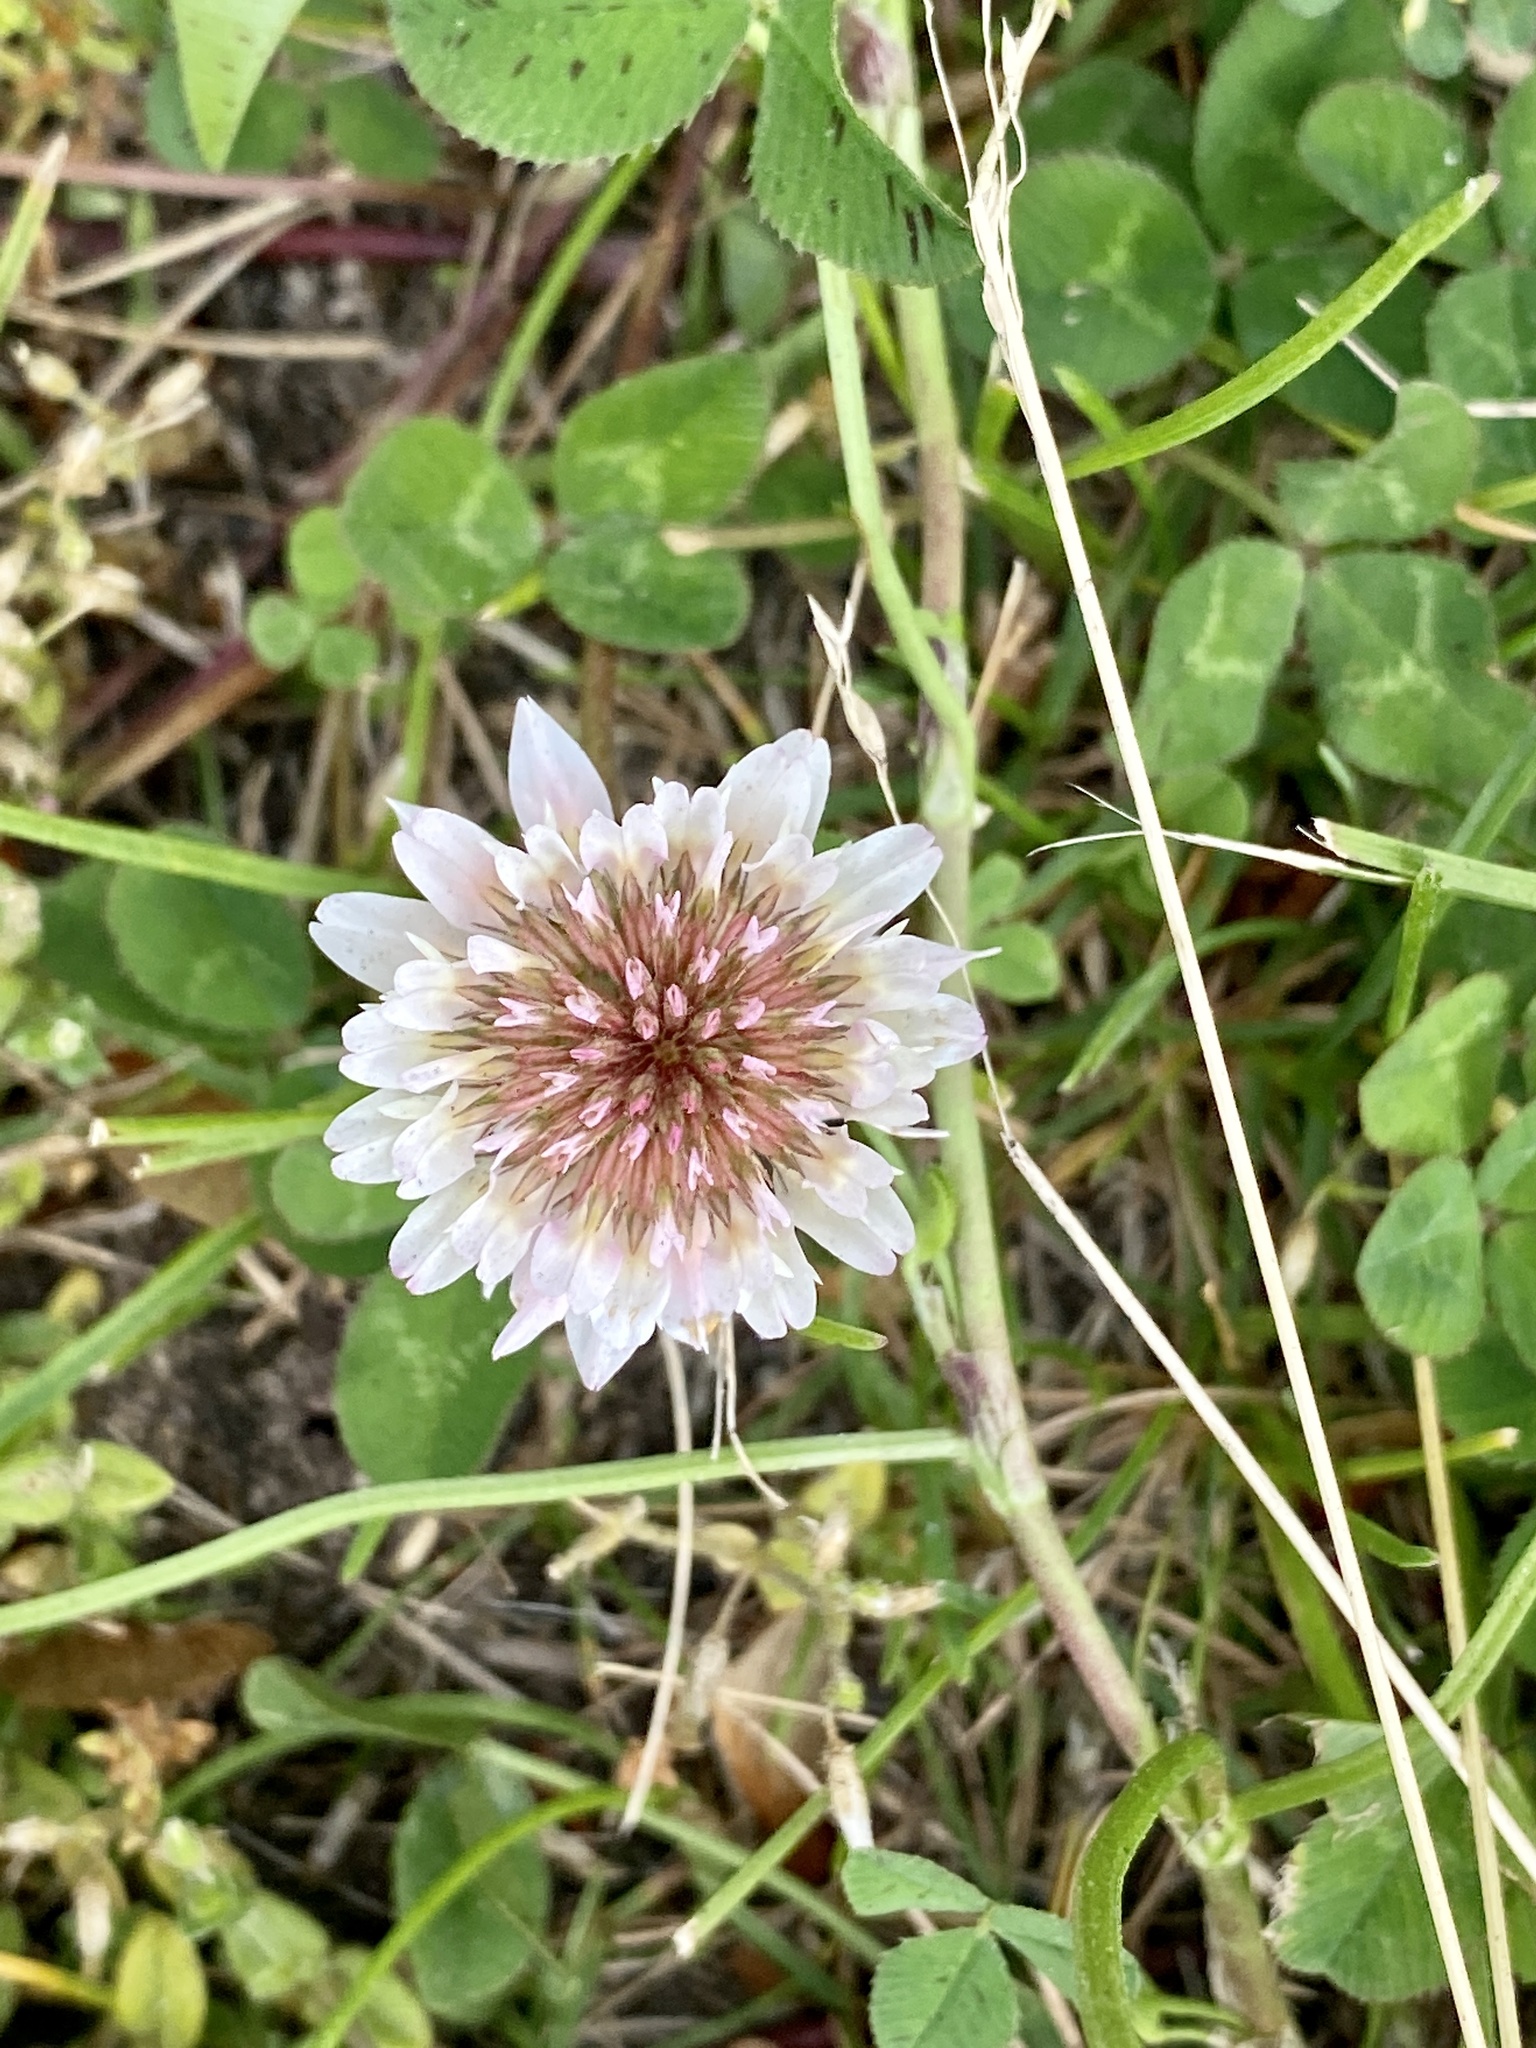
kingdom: Plantae
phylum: Tracheophyta
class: Magnoliopsida
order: Fabales
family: Fabaceae
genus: Trifolium
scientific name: Trifolium repens
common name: White clover
